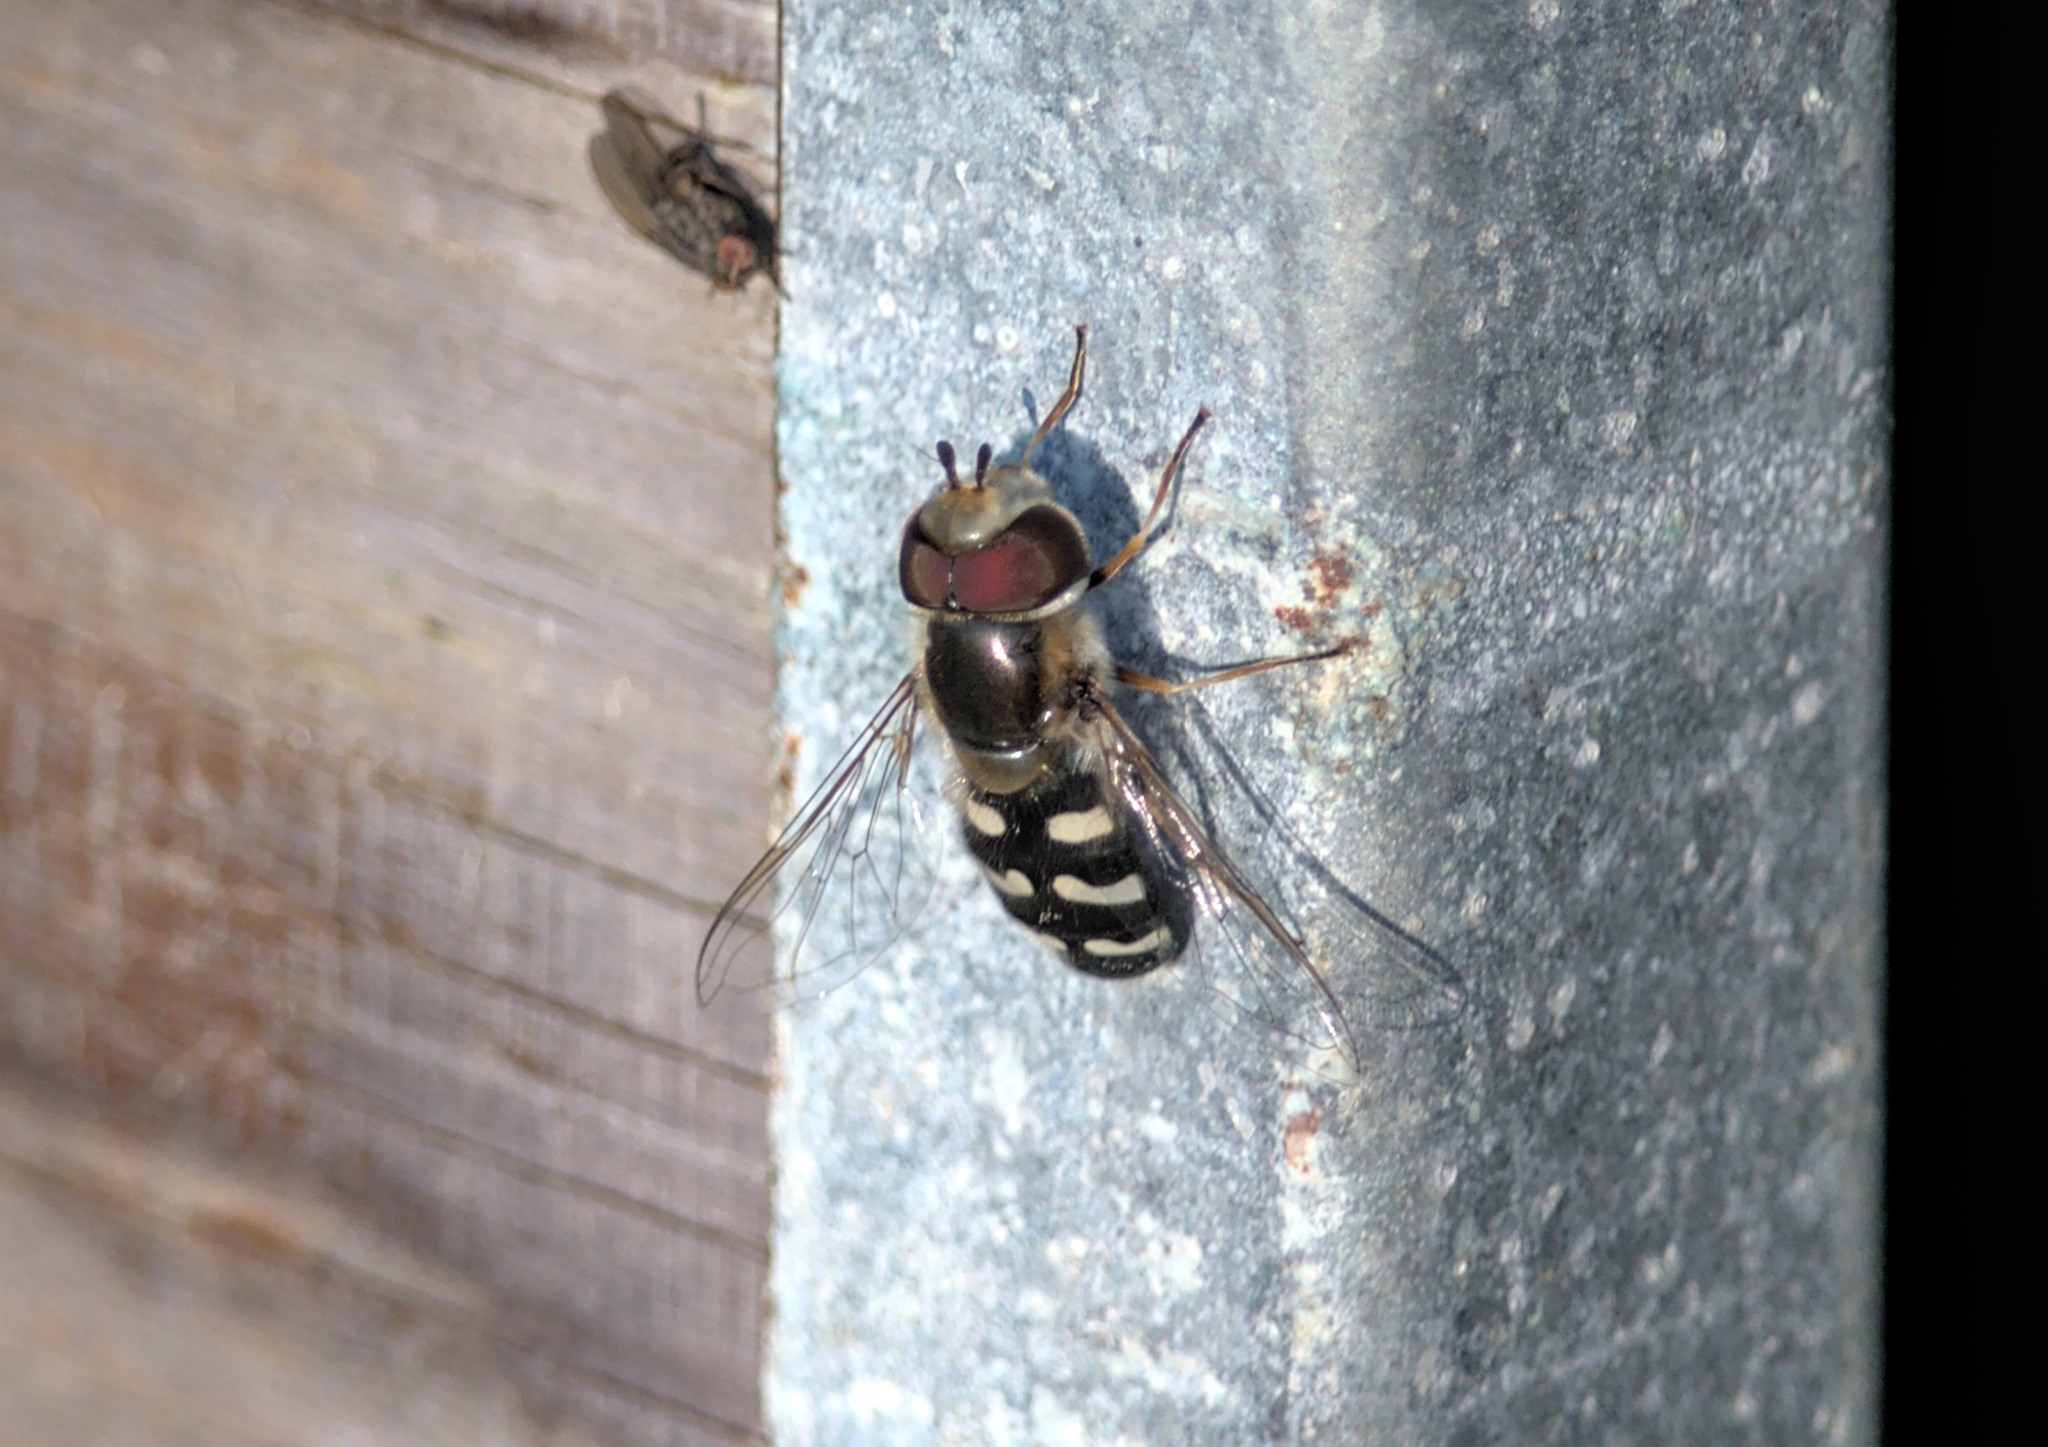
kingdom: Animalia
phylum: Arthropoda
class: Insecta
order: Diptera
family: Syrphidae
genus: Scaeva
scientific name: Scaeva pyrastri
